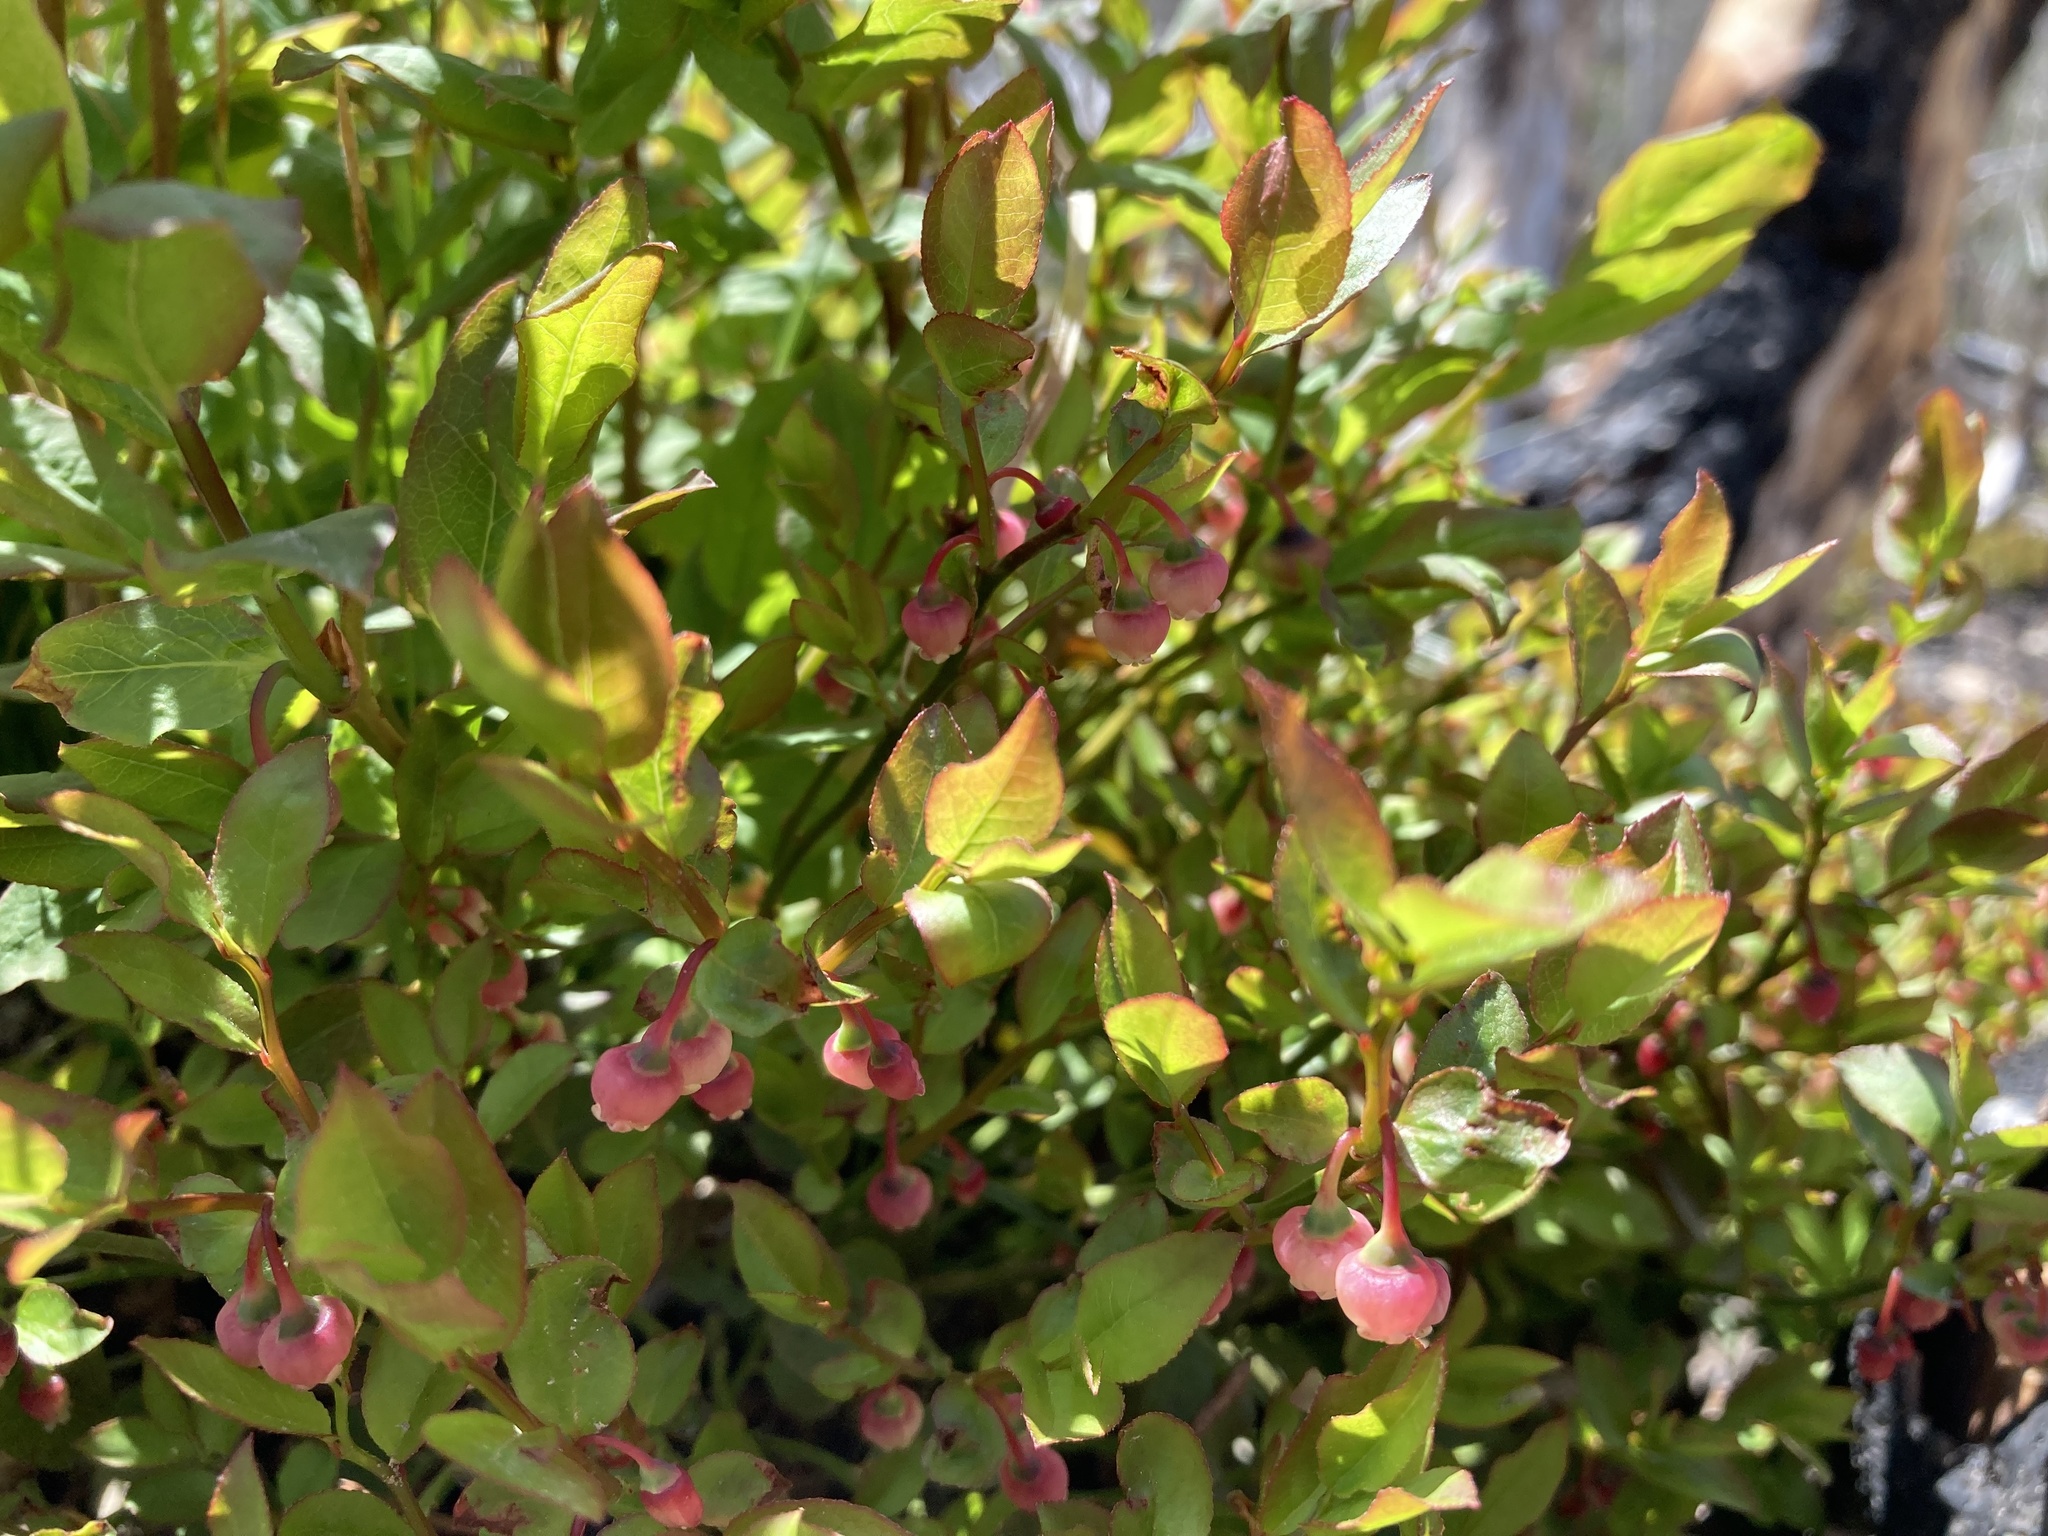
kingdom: Plantae
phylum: Tracheophyta
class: Magnoliopsida
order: Ericales
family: Ericaceae
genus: Vaccinium
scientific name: Vaccinium membranaceum
